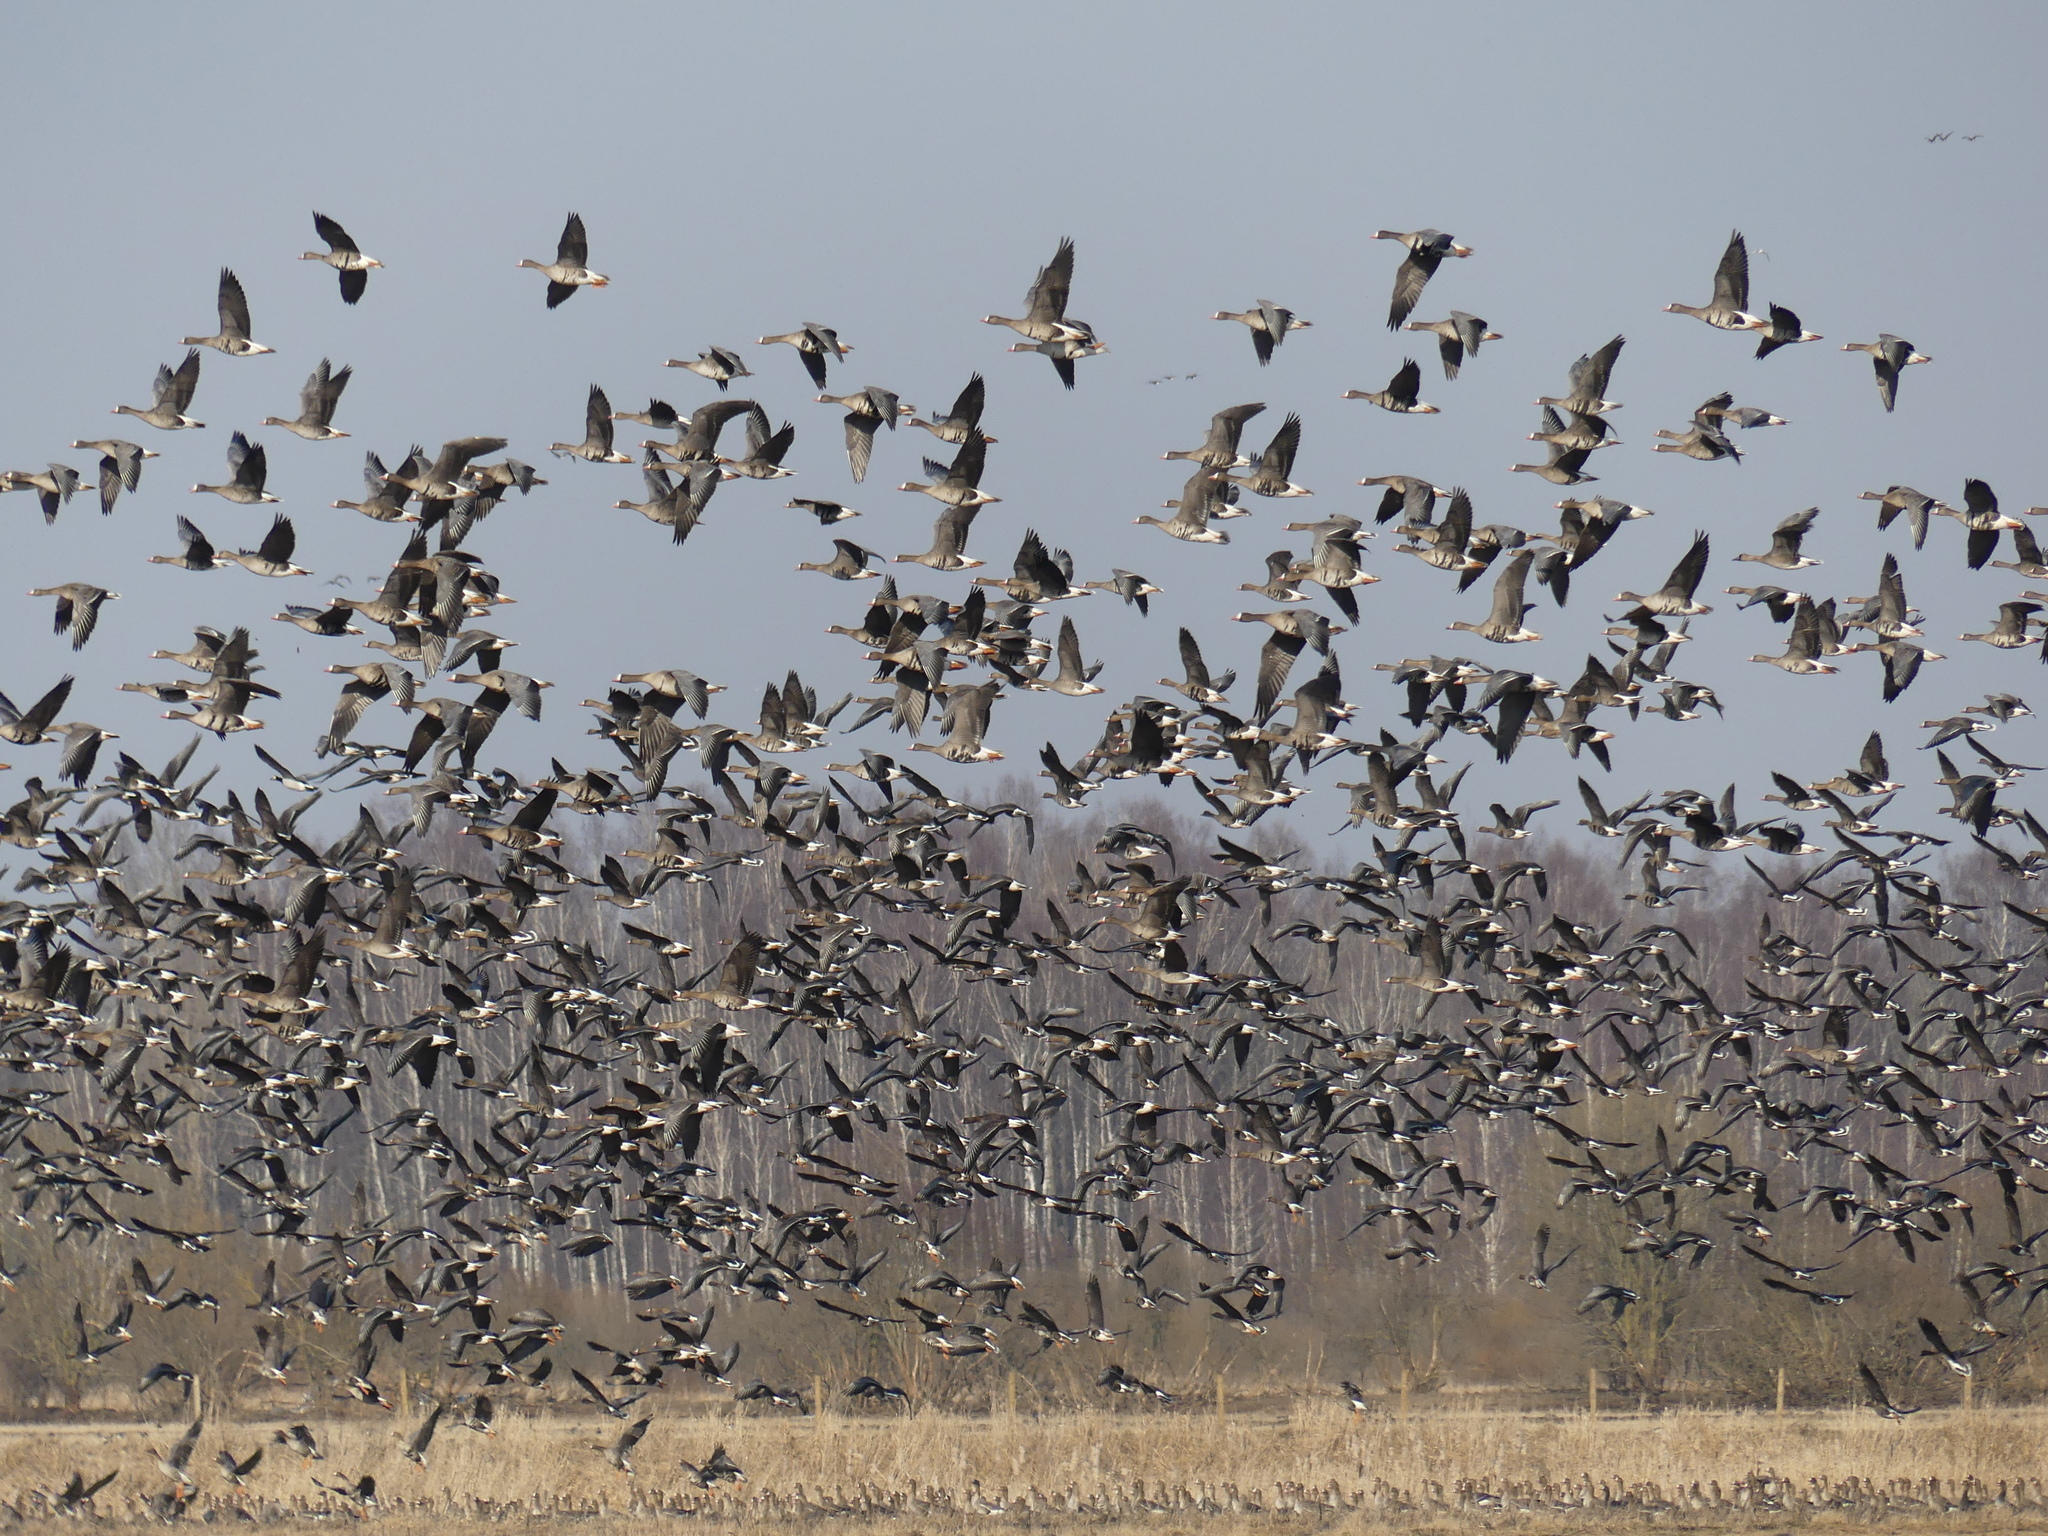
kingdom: Animalia
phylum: Chordata
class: Aves
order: Anseriformes
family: Anatidae
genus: Anser
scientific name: Anser albifrons
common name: Greater white-fronted goose
